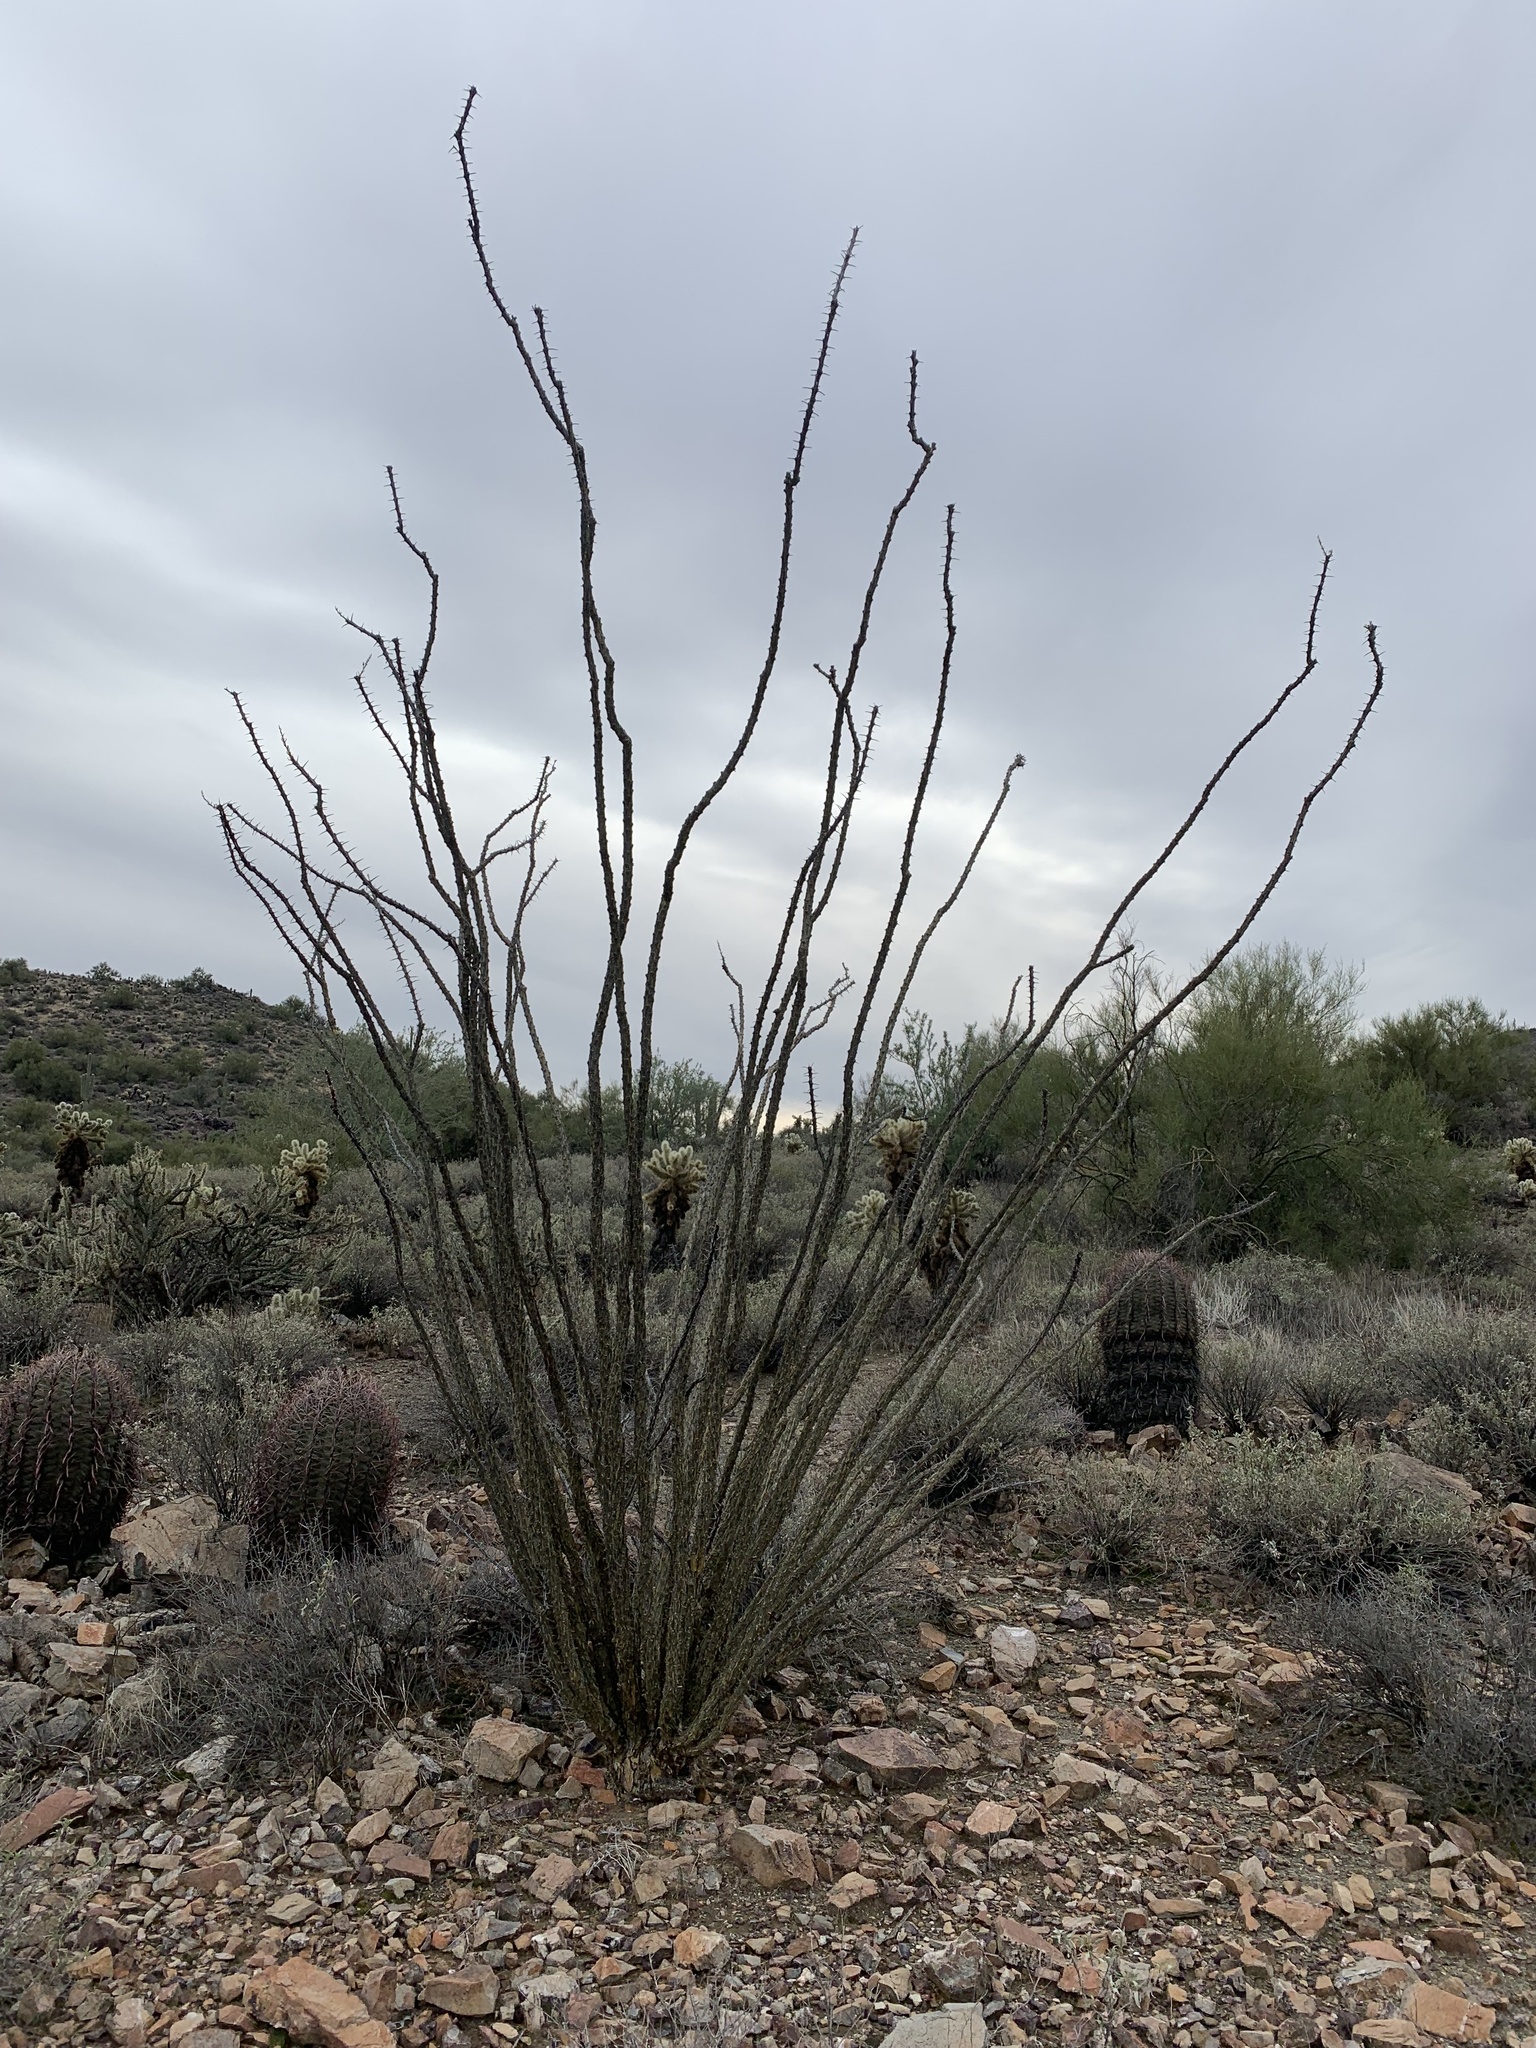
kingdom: Plantae
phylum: Tracheophyta
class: Magnoliopsida
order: Ericales
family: Fouquieriaceae
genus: Fouquieria
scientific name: Fouquieria splendens
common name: Vine-cactus
